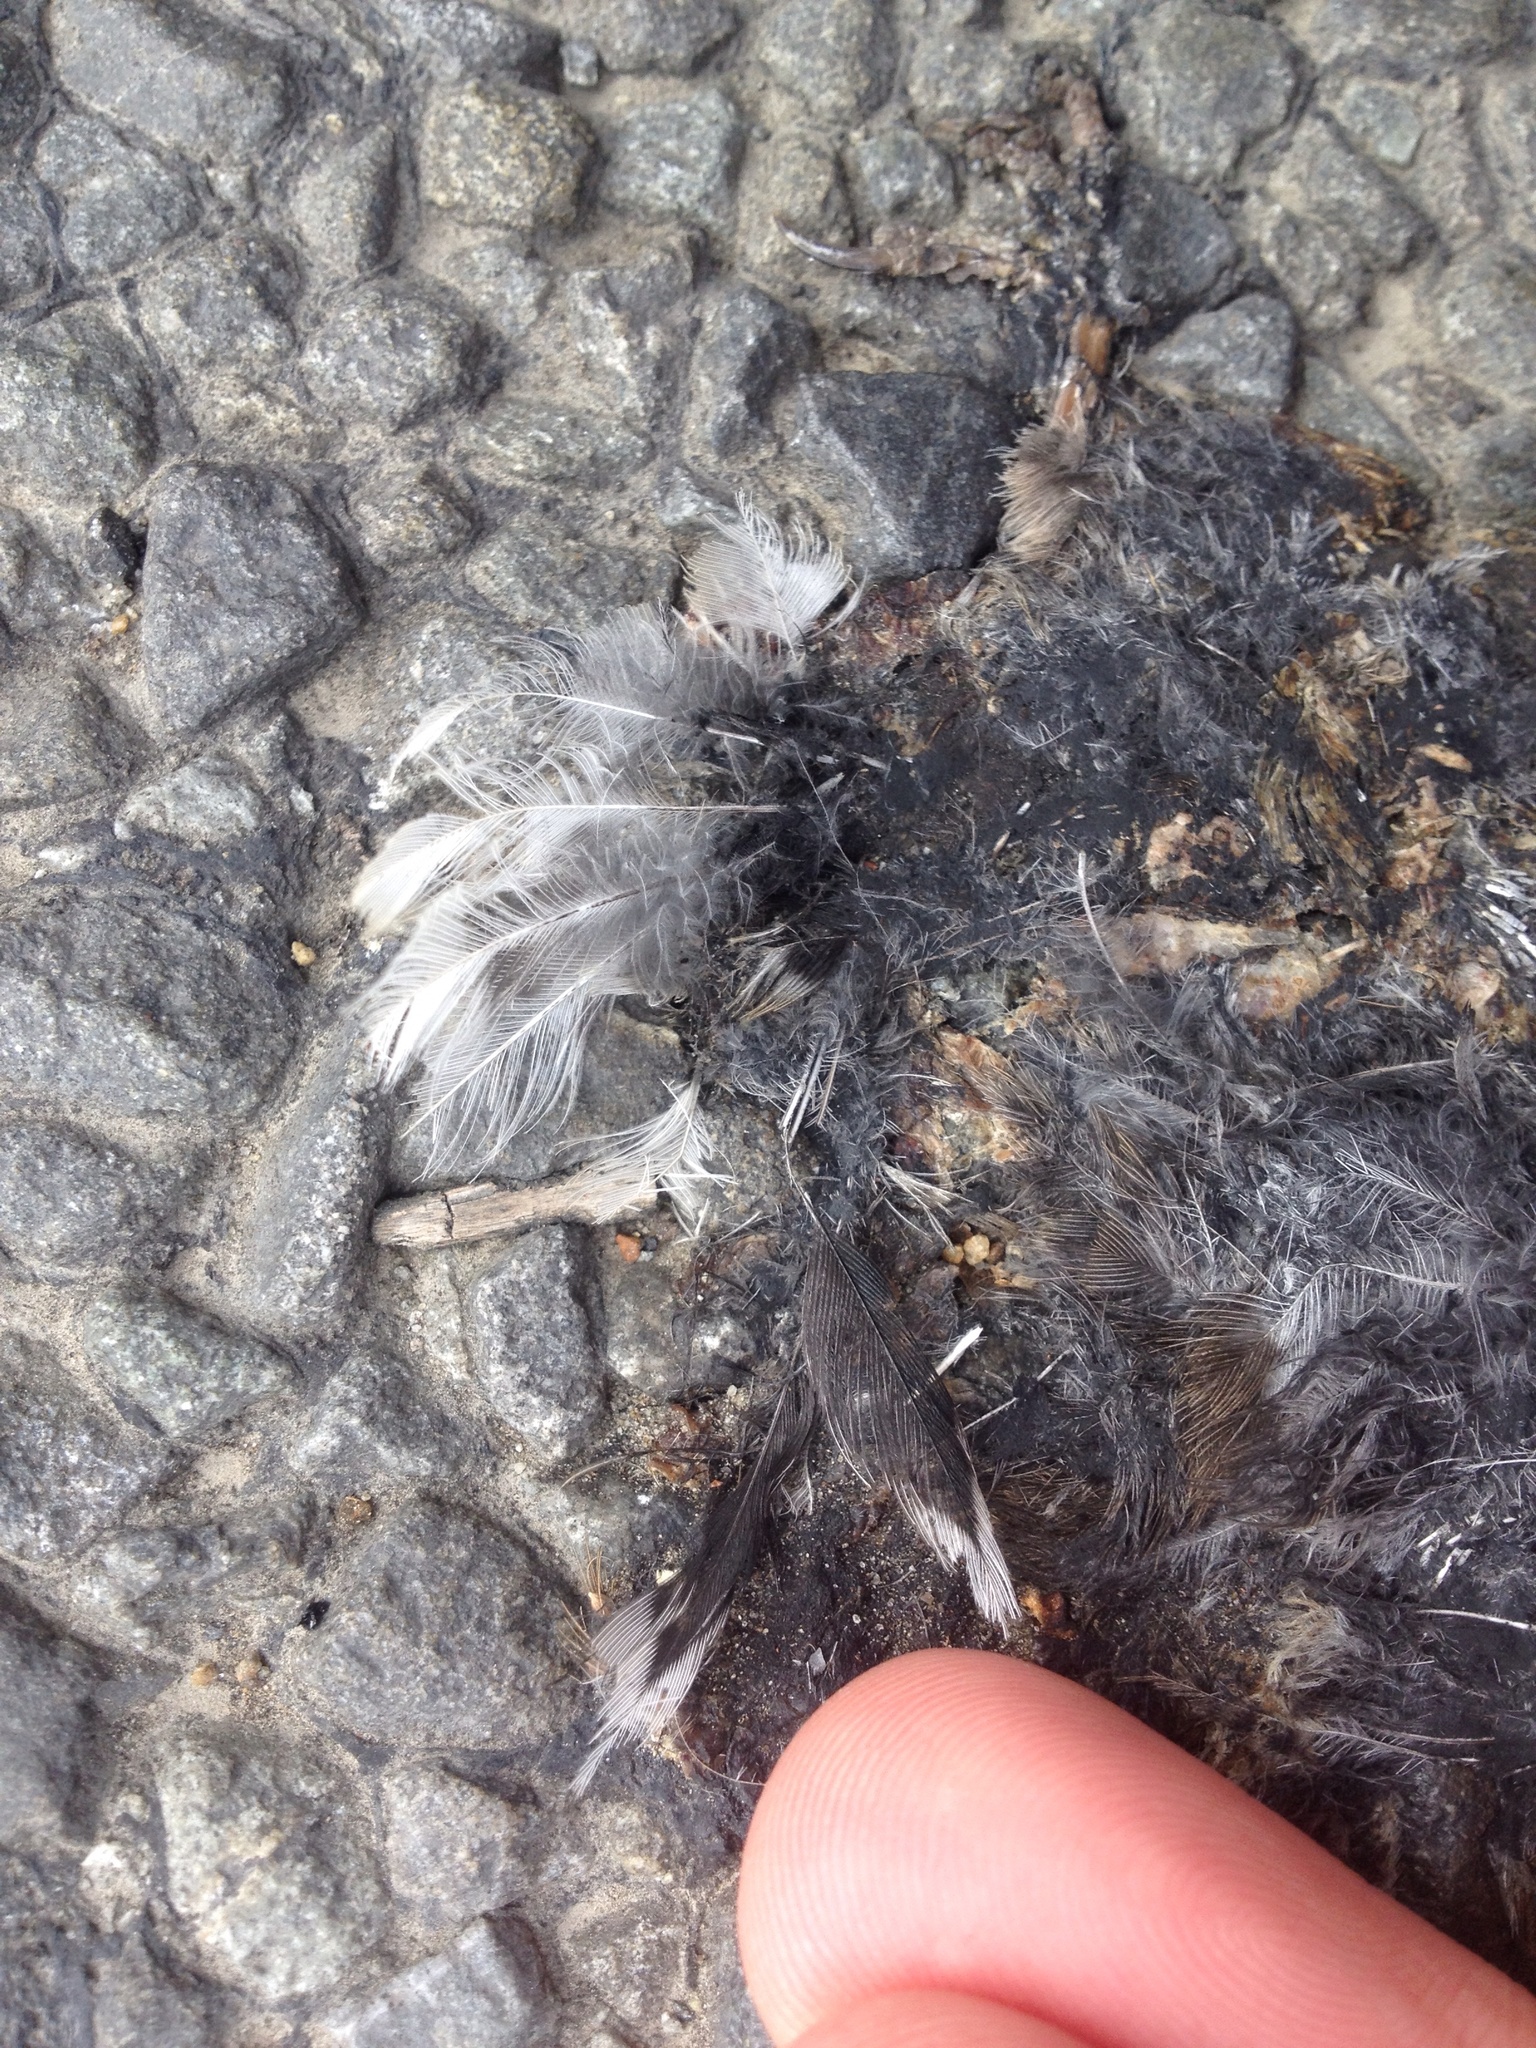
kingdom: Animalia
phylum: Chordata
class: Aves
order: Passeriformes
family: Fringillidae
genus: Carduelis
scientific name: Carduelis carduelis
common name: European goldfinch
